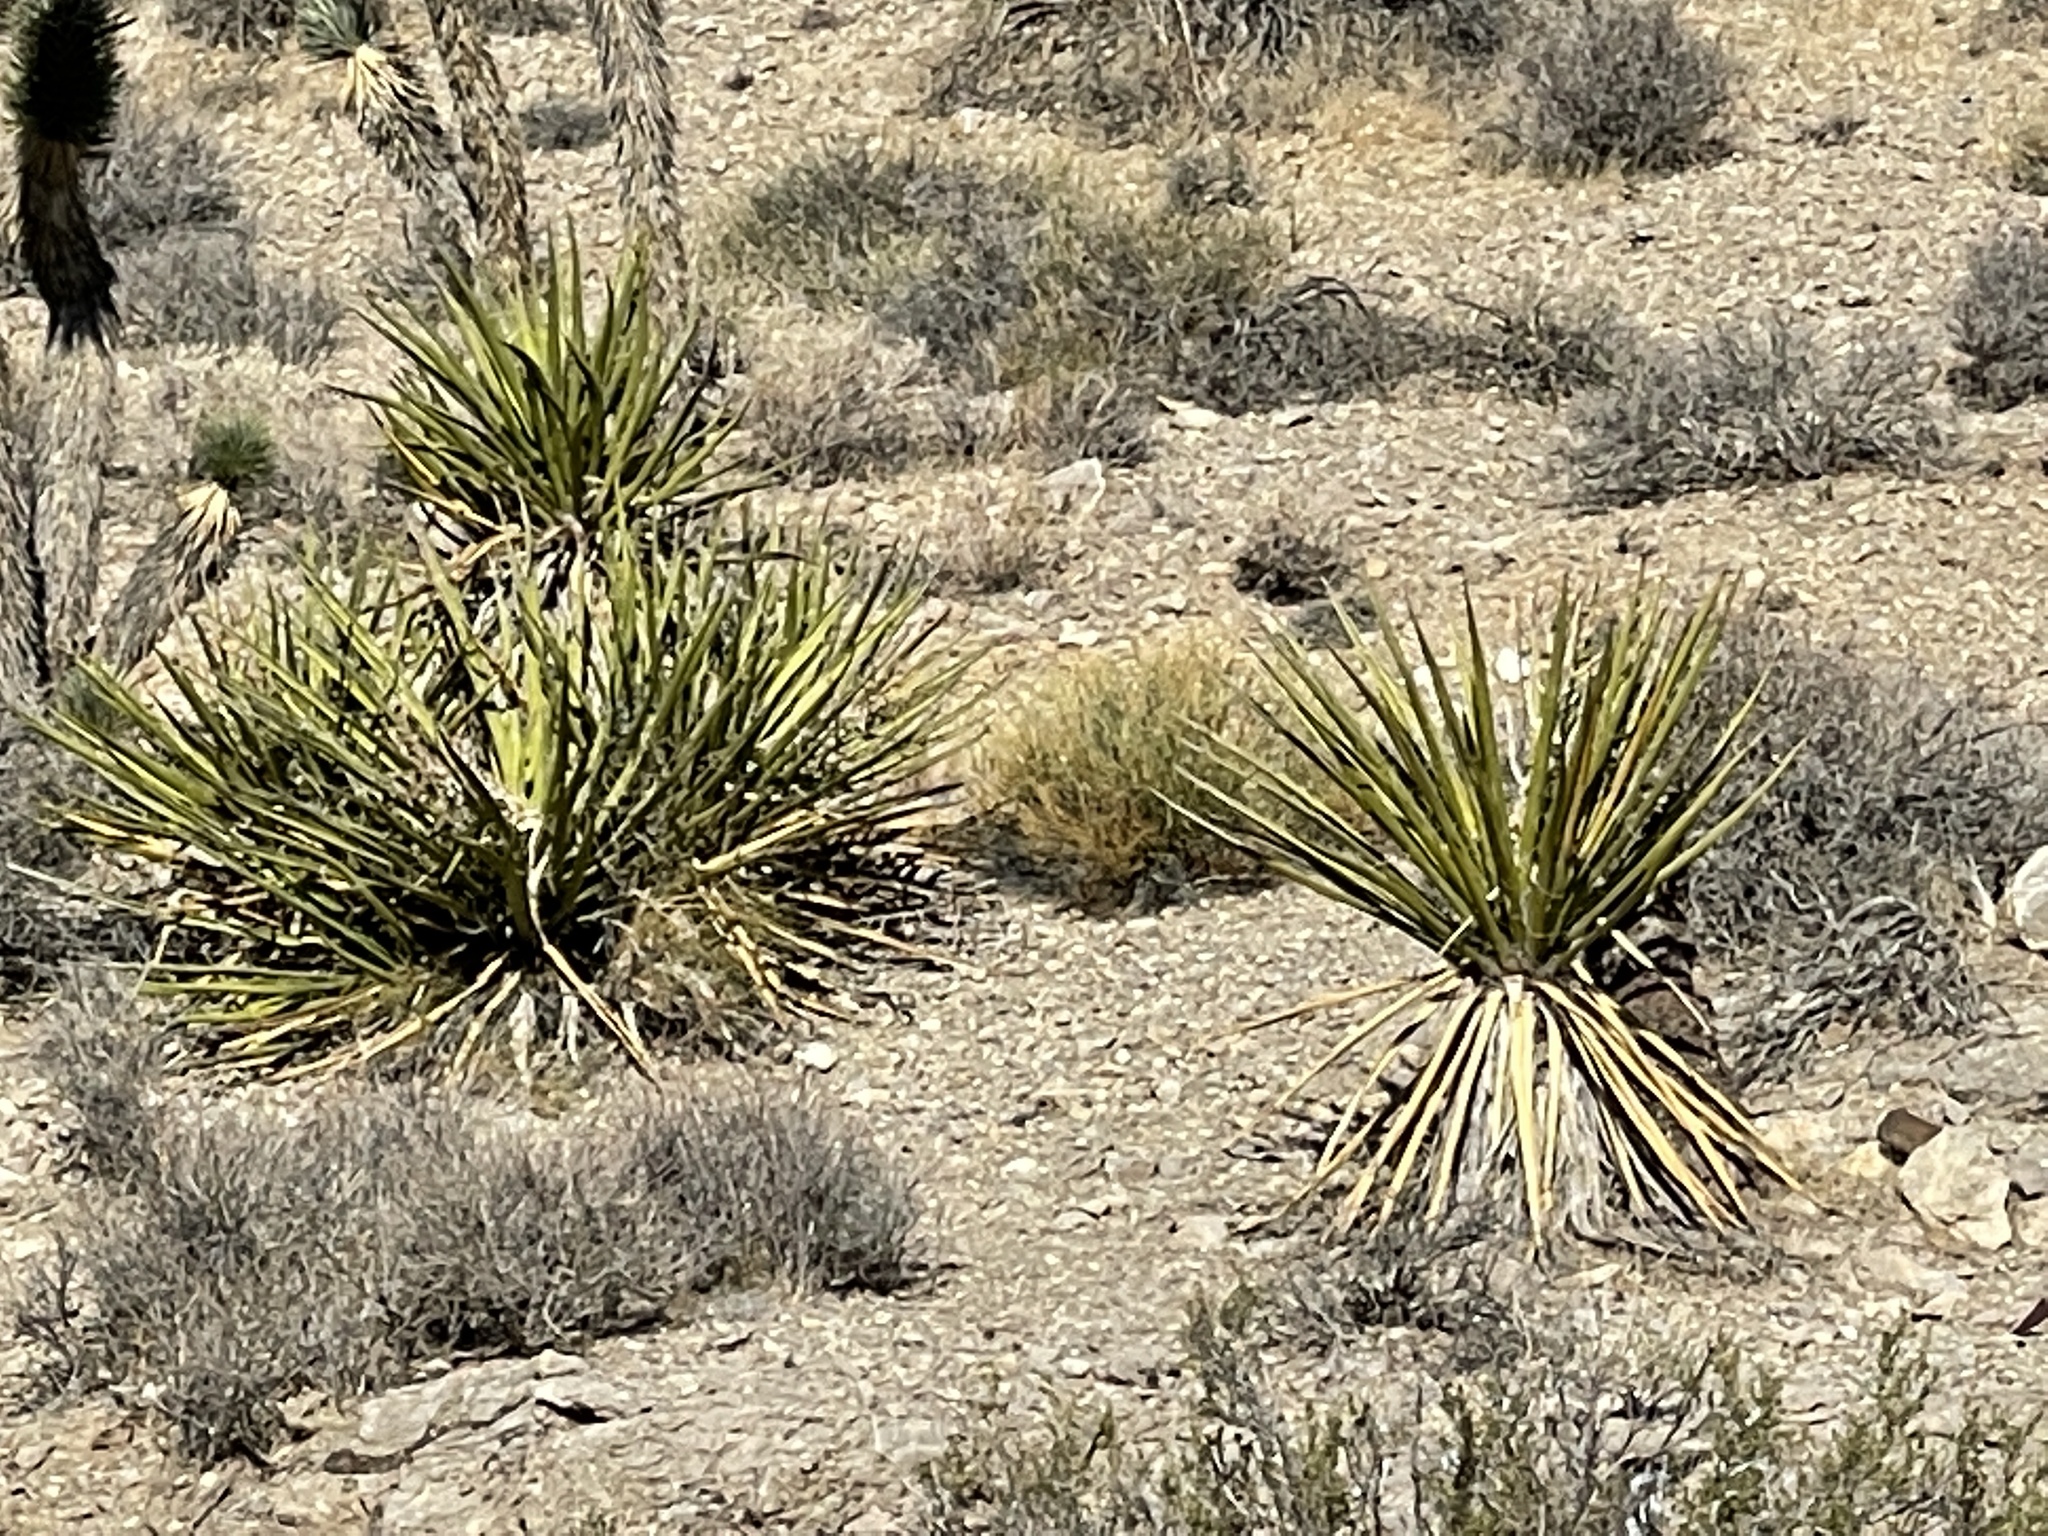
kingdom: Plantae
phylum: Tracheophyta
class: Liliopsida
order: Asparagales
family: Asparagaceae
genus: Yucca
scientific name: Yucca schidigera
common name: Mojave yucca
